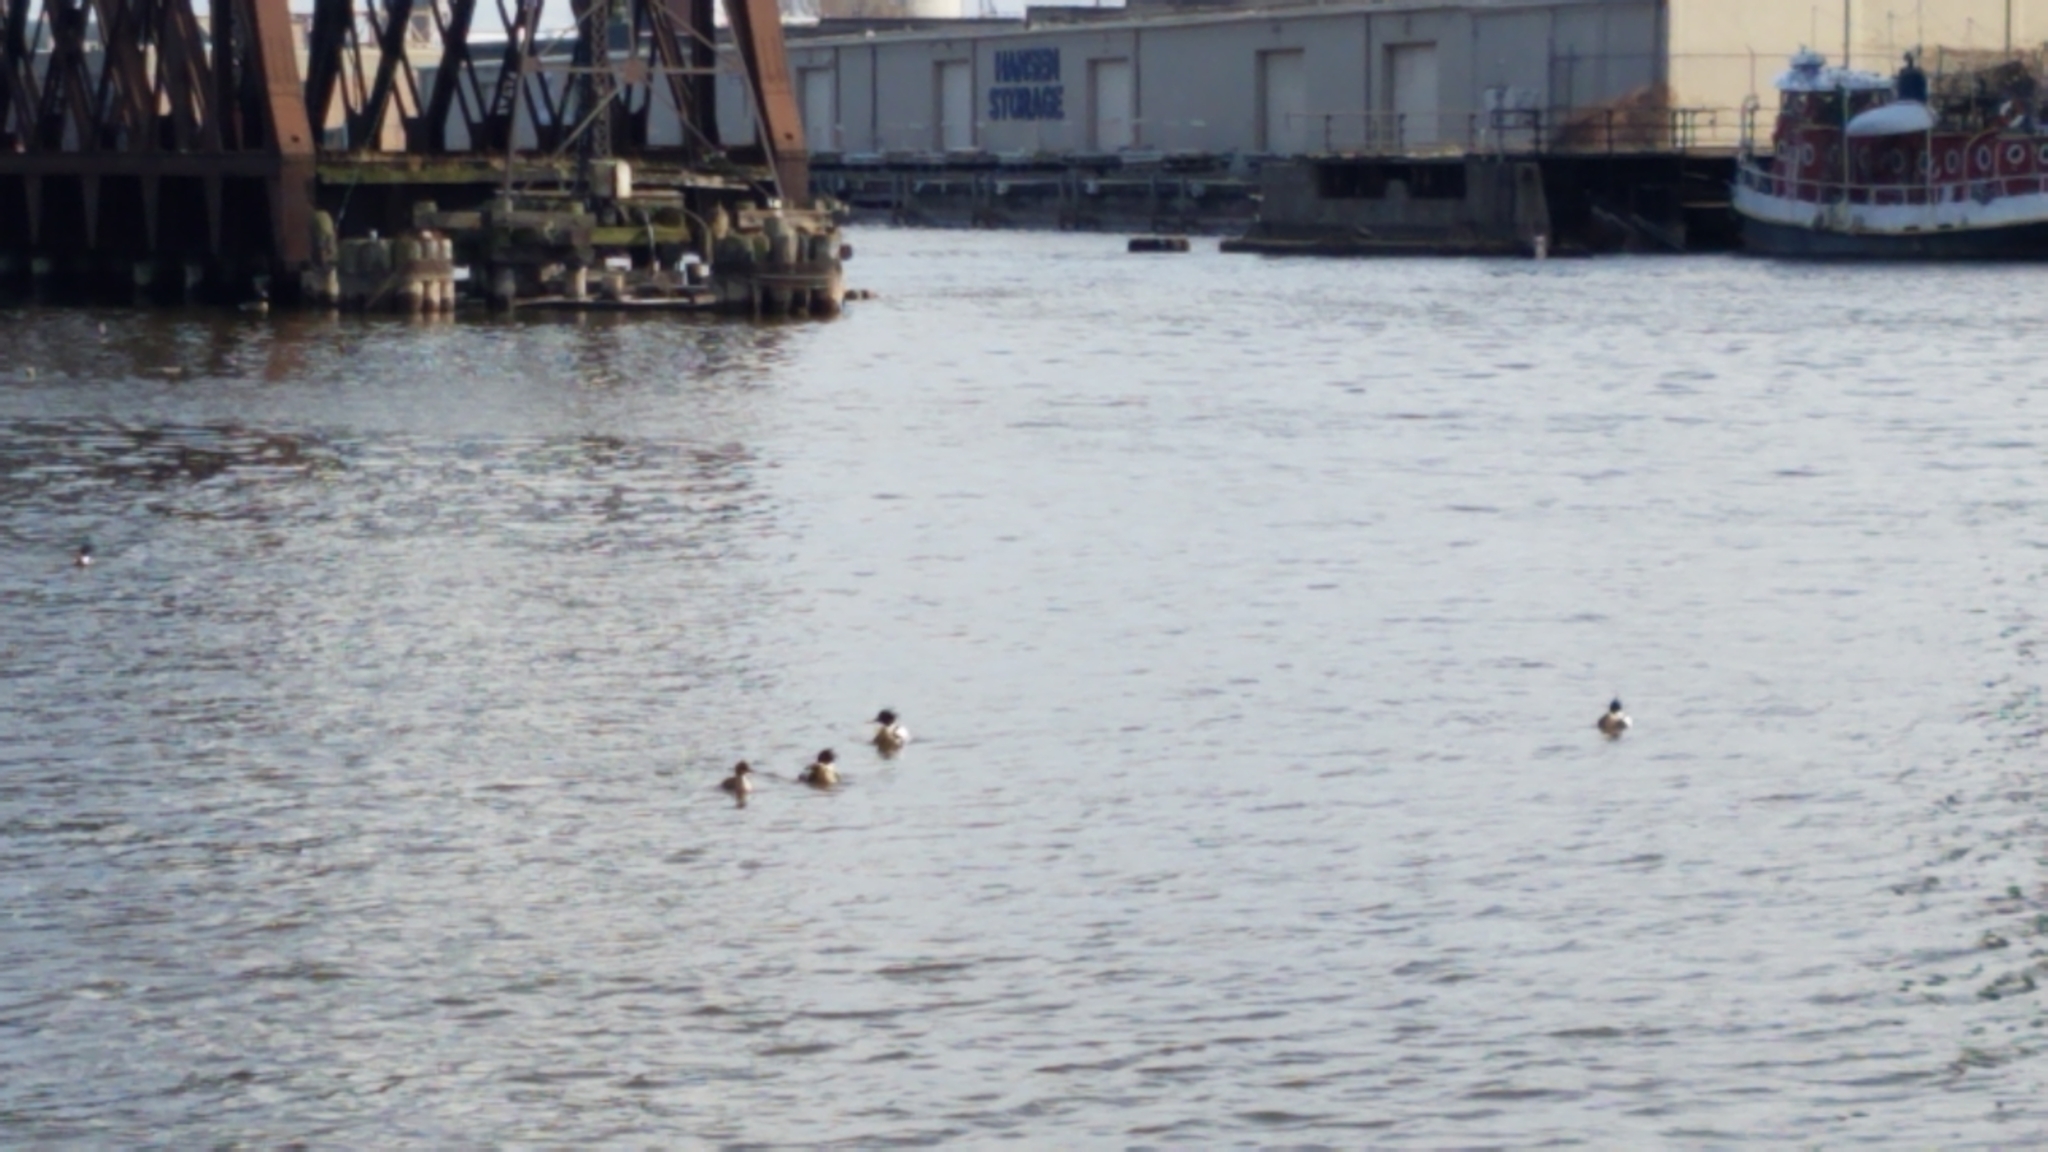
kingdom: Animalia
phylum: Chordata
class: Aves
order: Anseriformes
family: Anatidae
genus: Mergus
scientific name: Mergus serrator
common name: Red-breasted merganser
